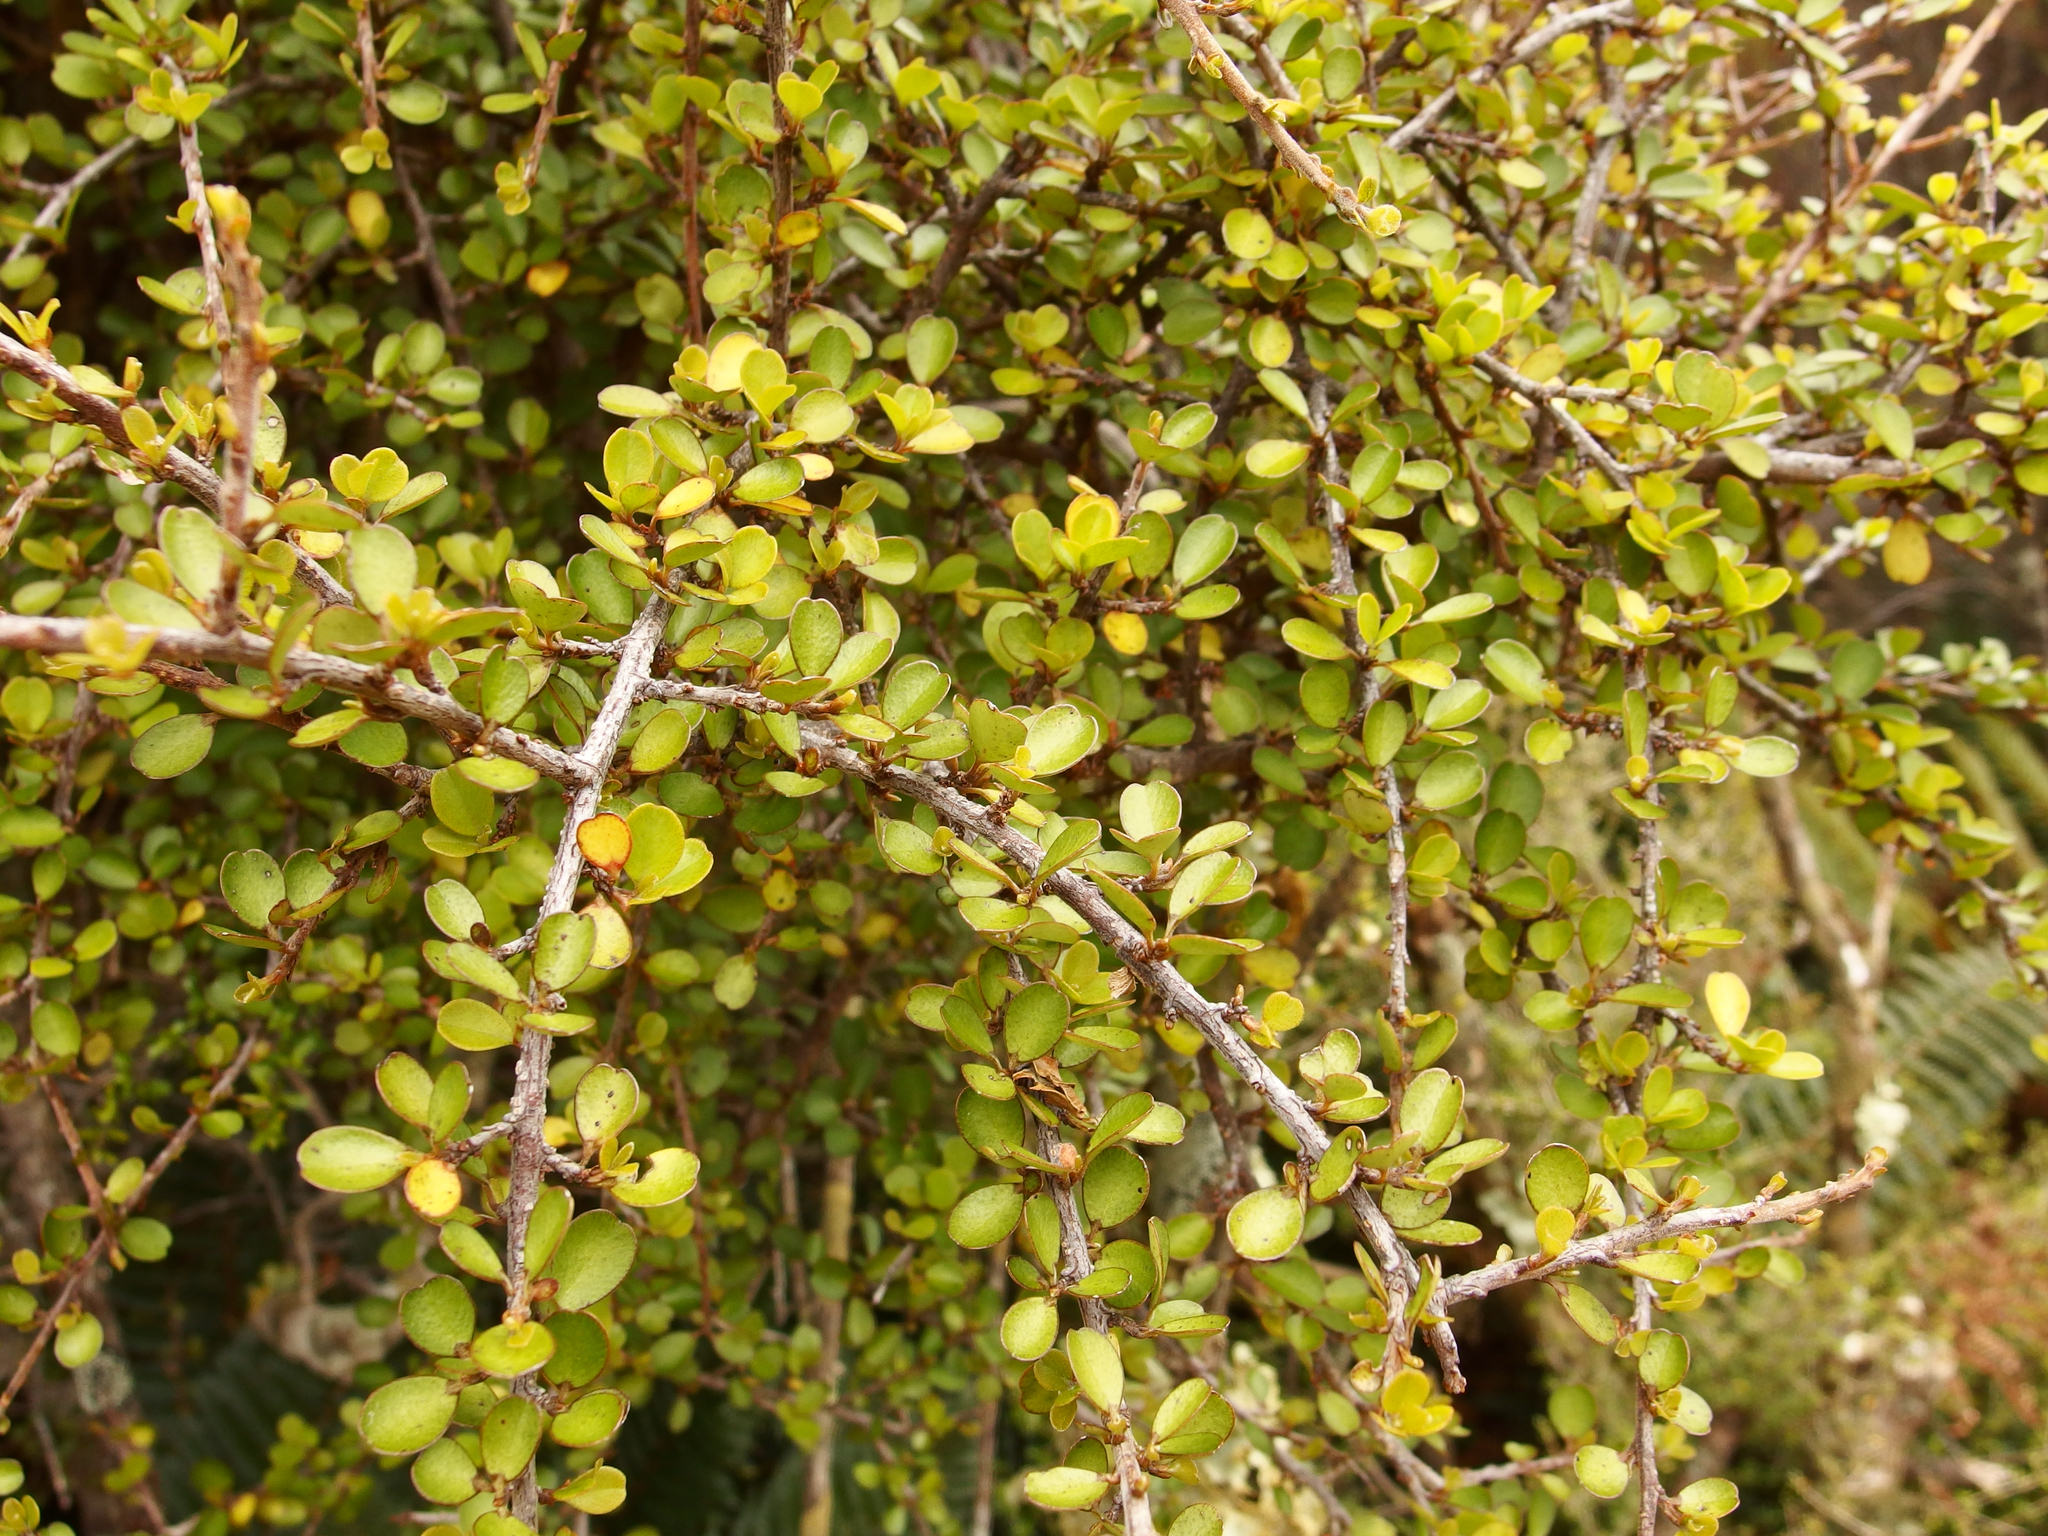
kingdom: Plantae
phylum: Tracheophyta
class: Magnoliopsida
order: Ericales
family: Primulaceae
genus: Myrsine
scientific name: Myrsine divaricata
